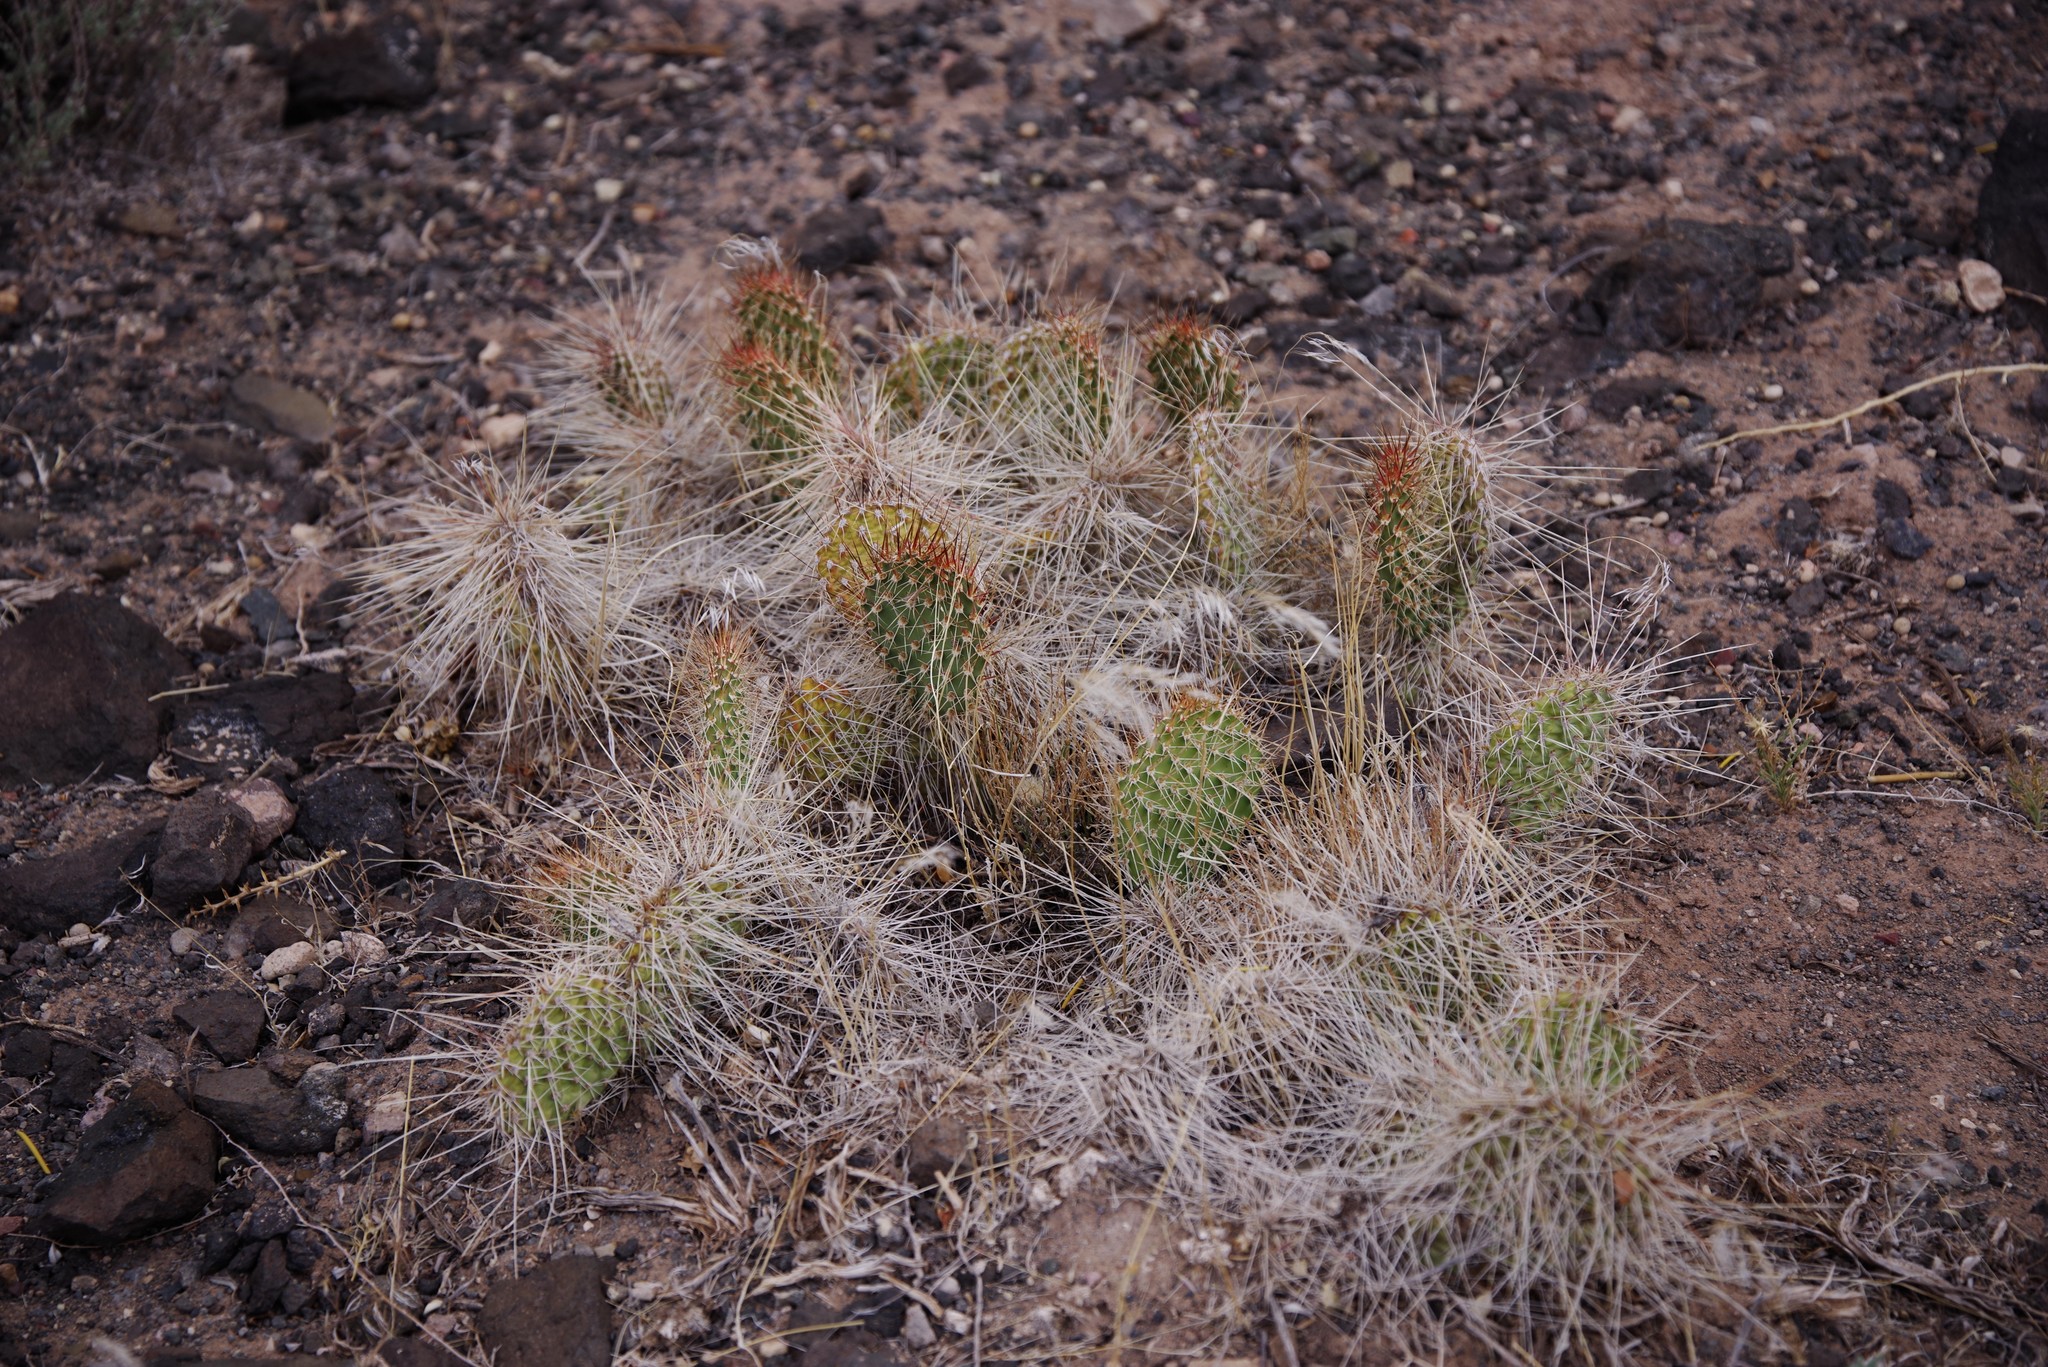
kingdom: Plantae
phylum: Tracheophyta
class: Magnoliopsida
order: Caryophyllales
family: Cactaceae
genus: Opuntia
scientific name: Opuntia polyacantha
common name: Plains prickly-pear
